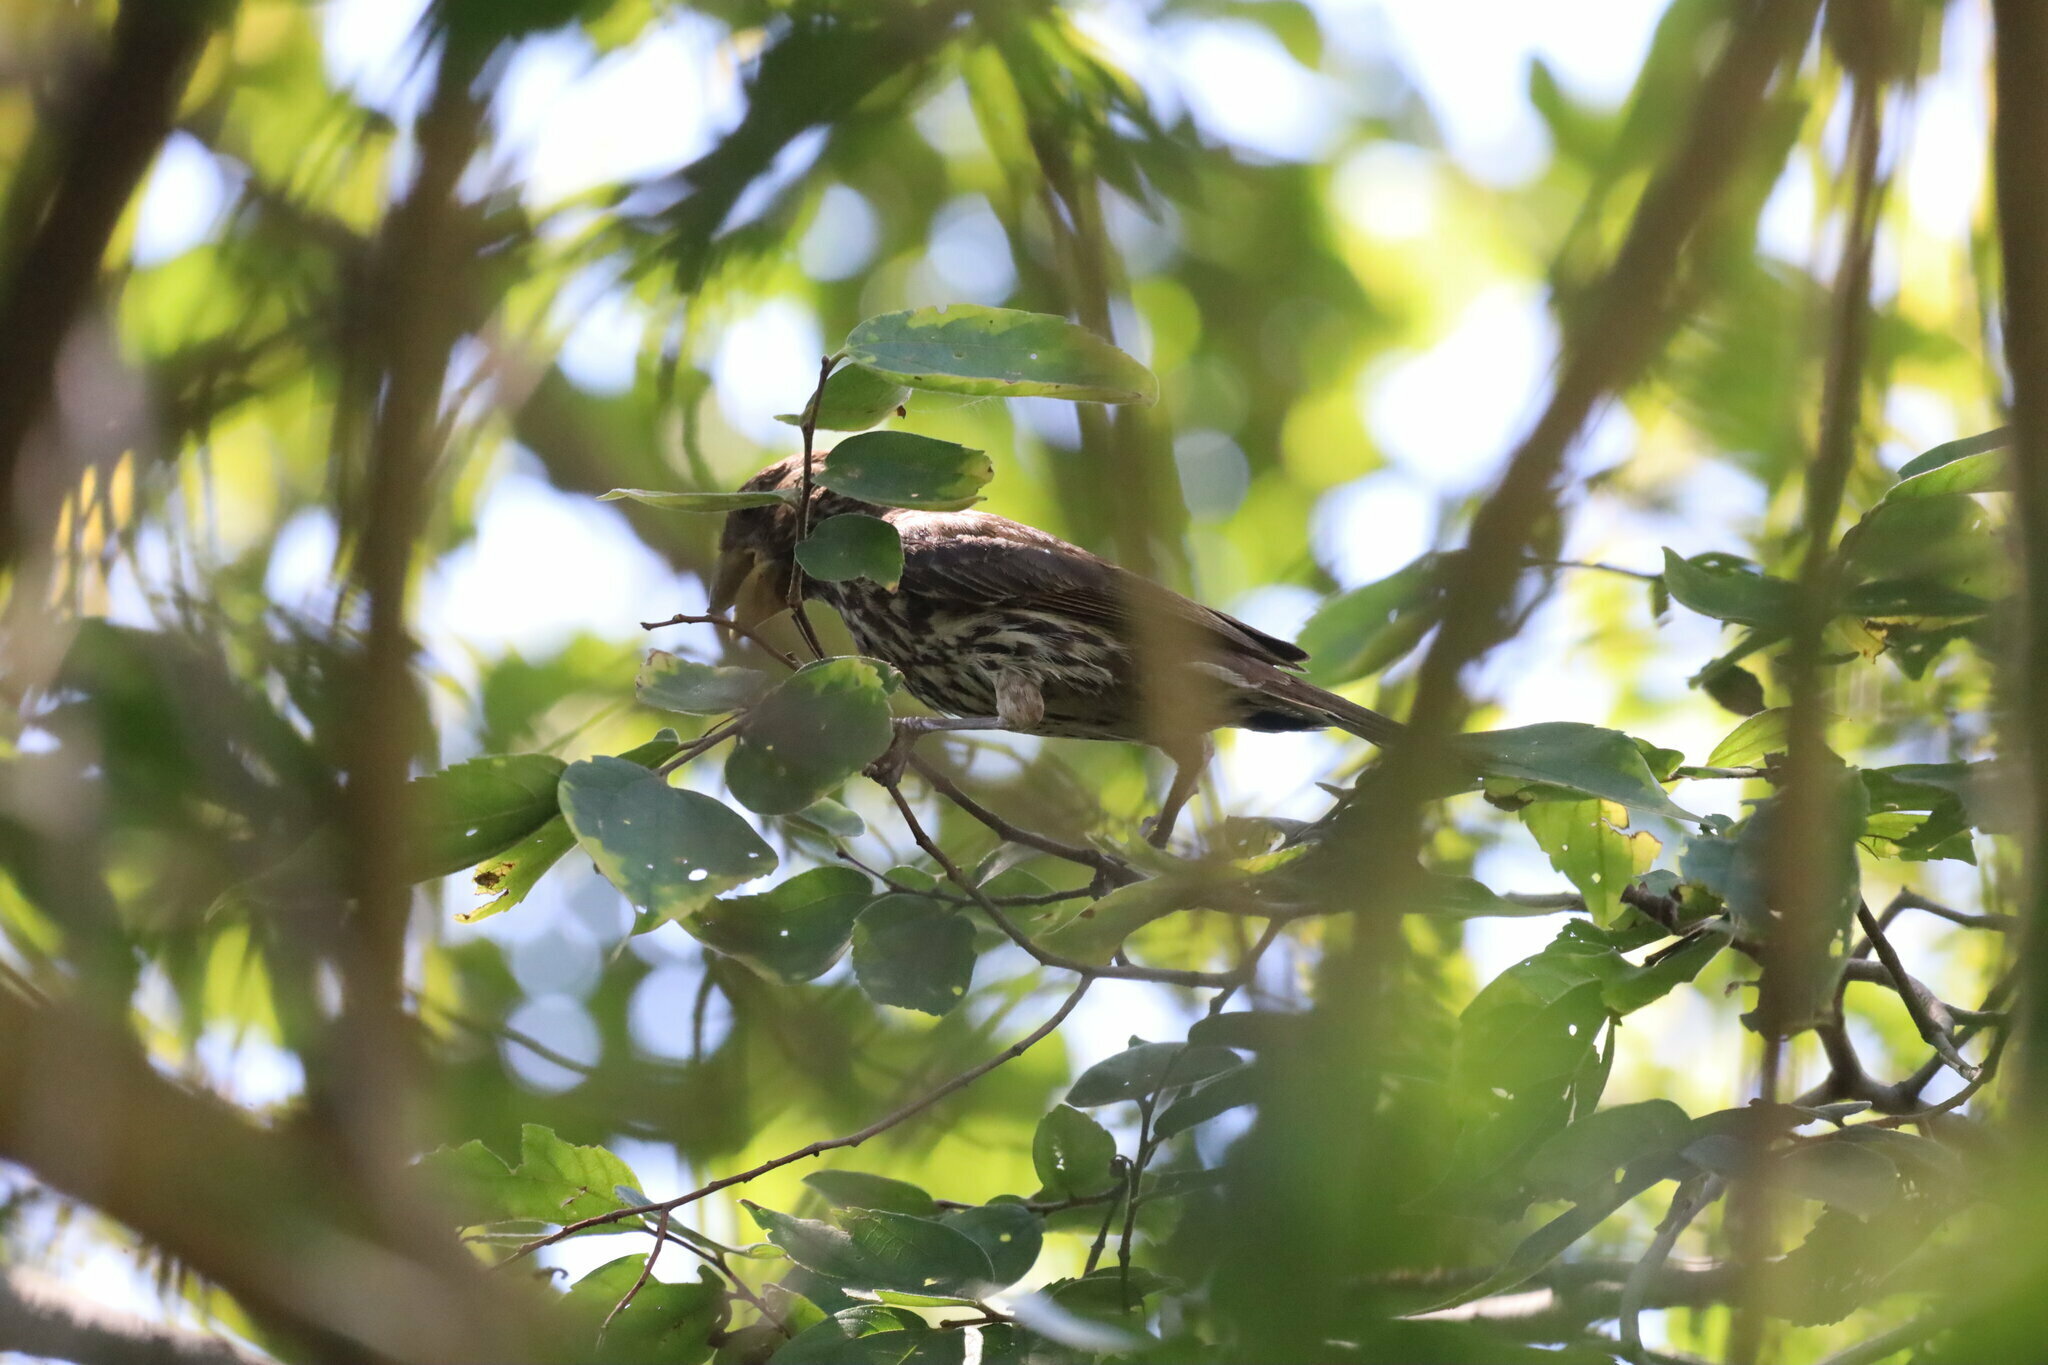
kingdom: Animalia
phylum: Chordata
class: Aves
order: Passeriformes
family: Ploceidae
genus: Amblyospiza
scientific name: Amblyospiza albifrons
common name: Thick-billed weaver
